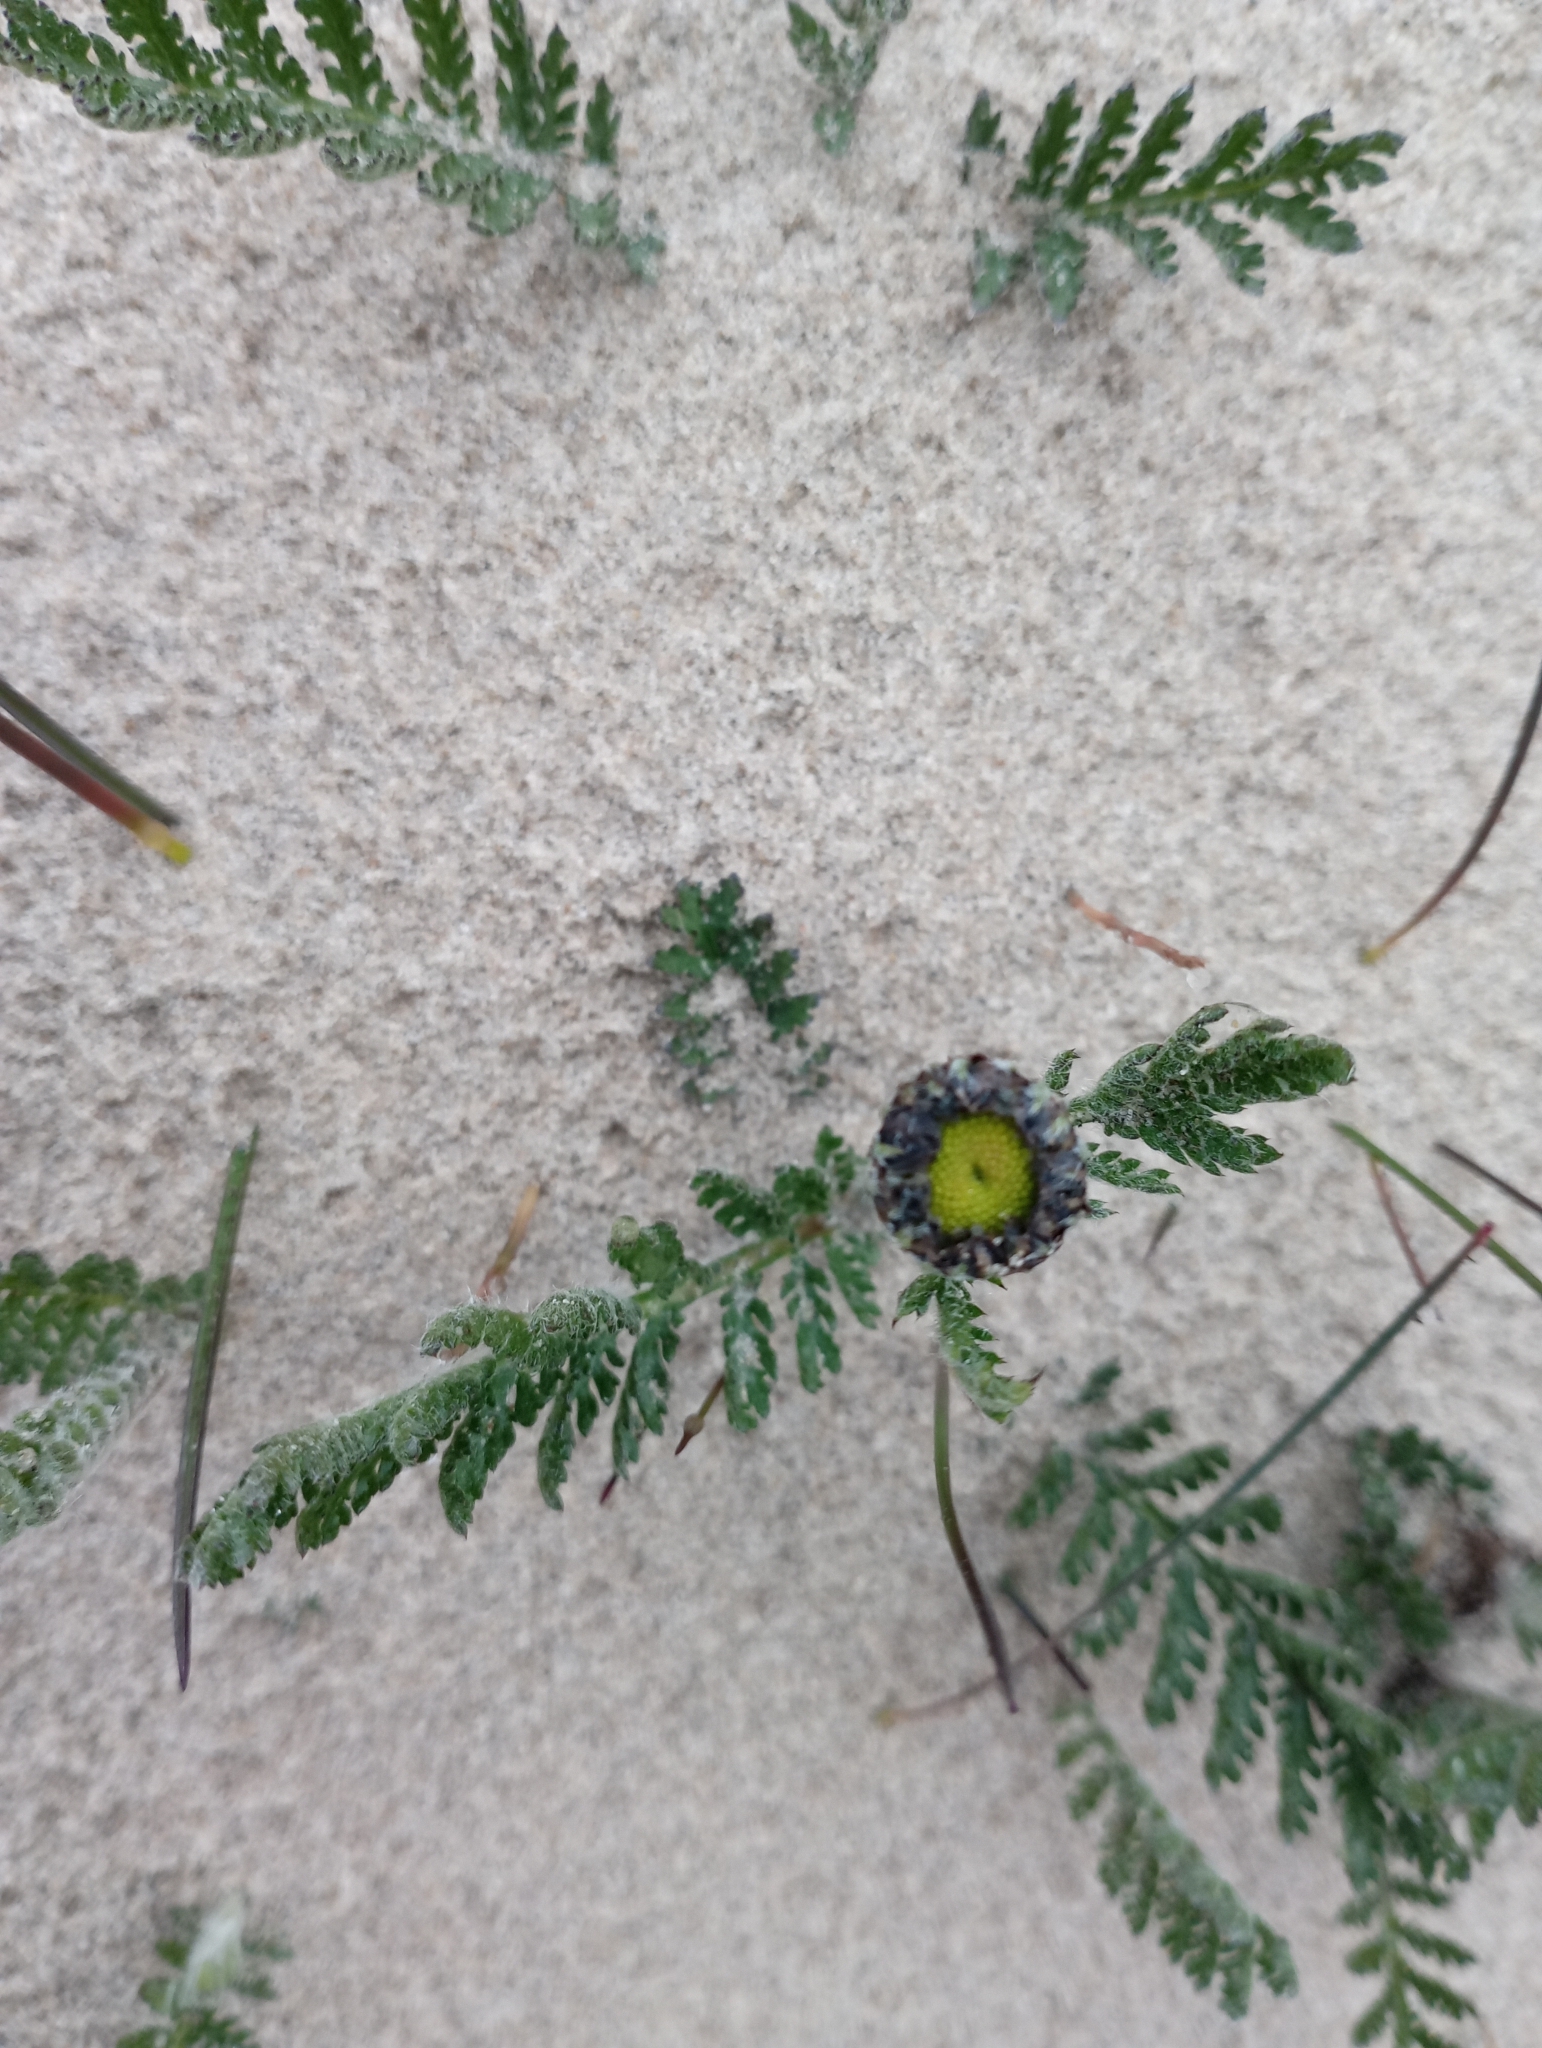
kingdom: Plantae
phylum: Tracheophyta
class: Magnoliopsida
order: Asterales
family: Asteraceae
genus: Tanacetum
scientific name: Tanacetum bipinnatum
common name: Dwarf tansy
